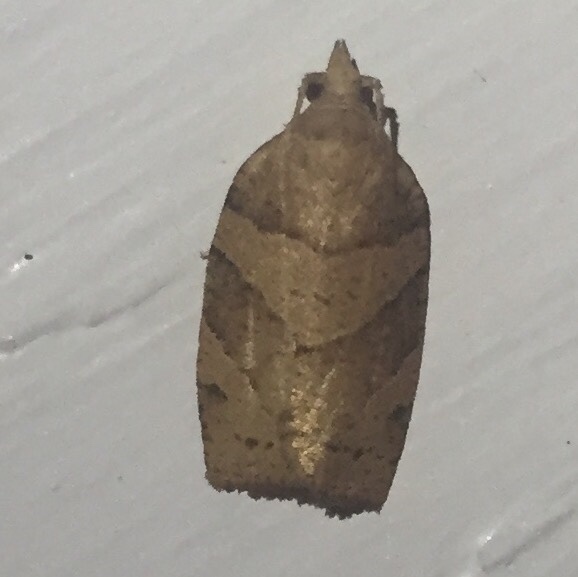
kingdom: Animalia
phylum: Arthropoda
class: Insecta
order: Lepidoptera
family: Tortricidae
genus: Pandemis
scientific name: Pandemis lamprosana
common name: Woodgrain leafroller moth
